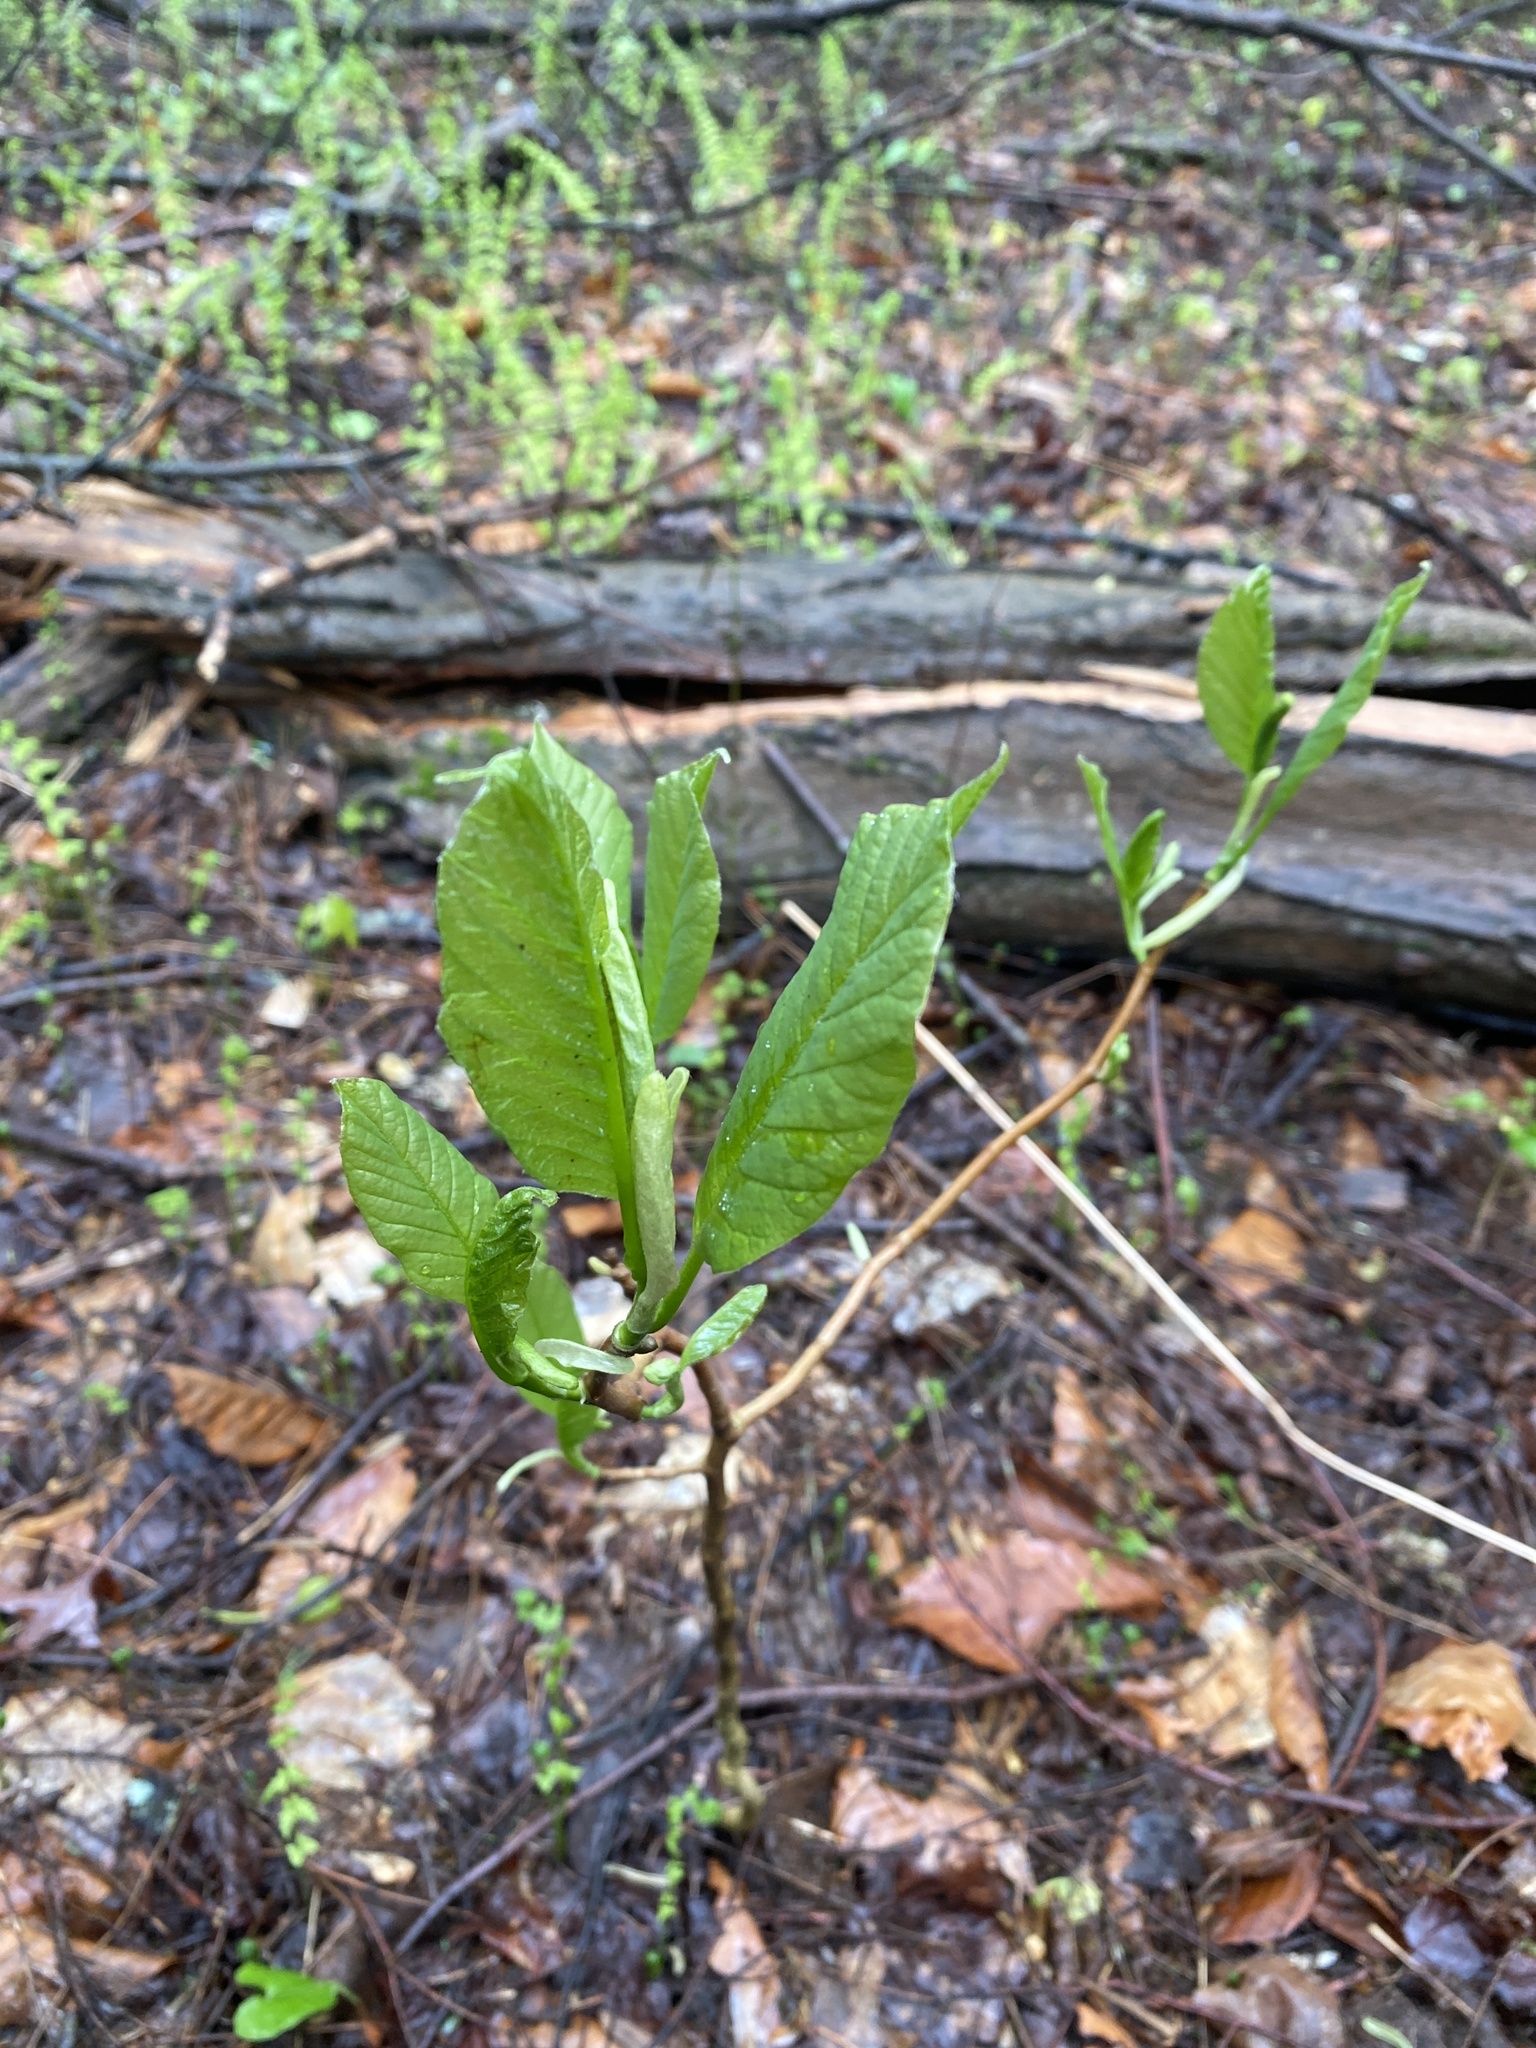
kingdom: Plantae
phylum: Tracheophyta
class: Magnoliopsida
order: Magnoliales
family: Magnoliaceae
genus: Magnolia
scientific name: Magnolia acuminata
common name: Cucumber magnolia
